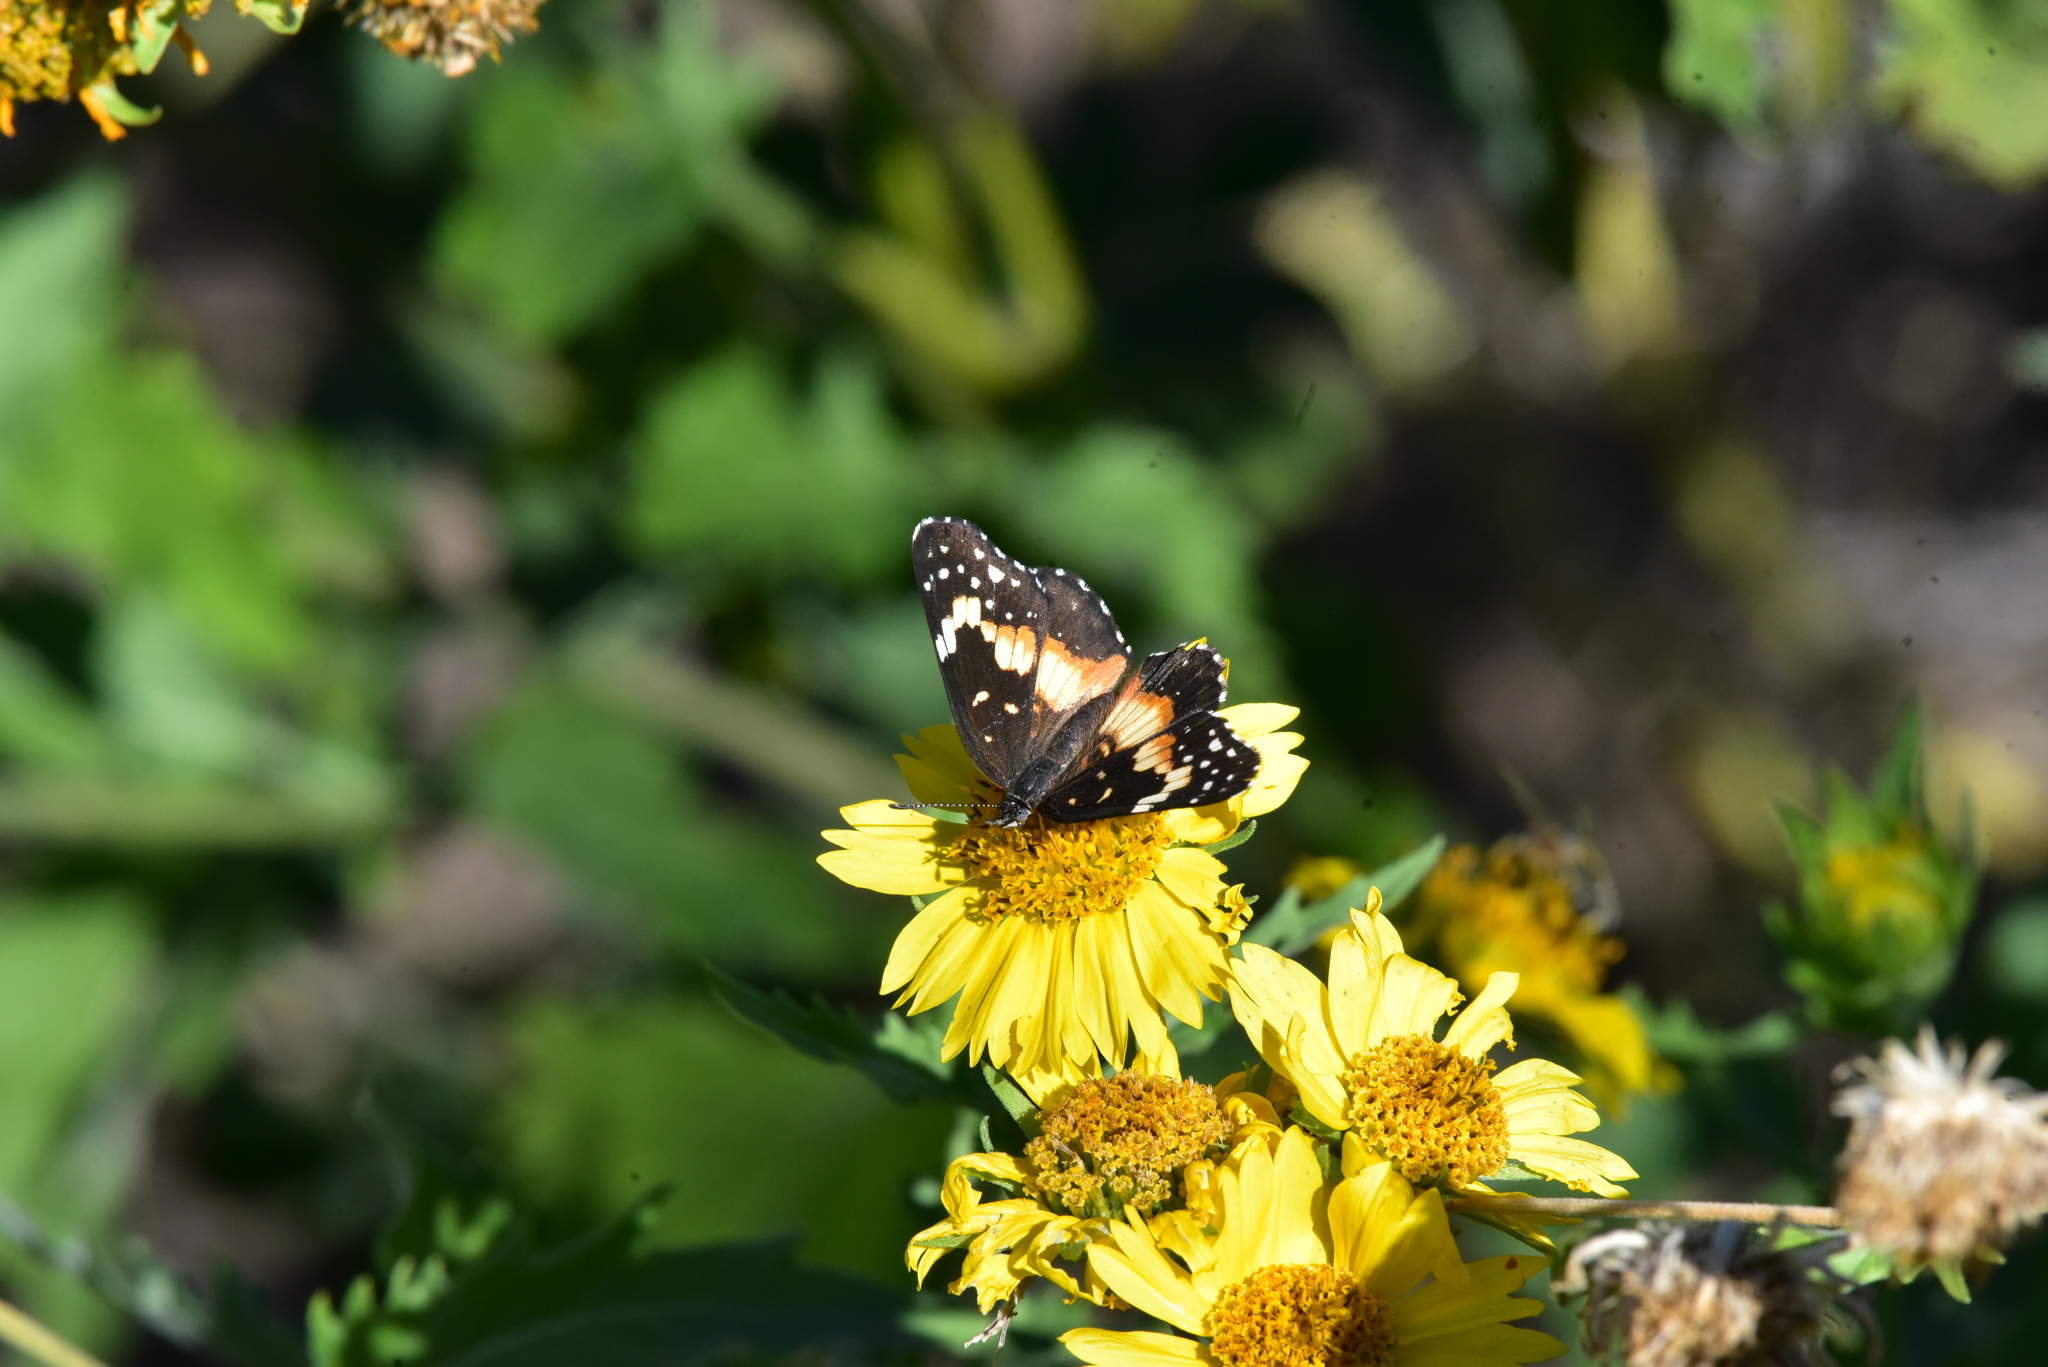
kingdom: Animalia
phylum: Arthropoda
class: Insecta
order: Lepidoptera
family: Nymphalidae
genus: Chlosyne
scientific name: Chlosyne lacinia
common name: Bordered patch
